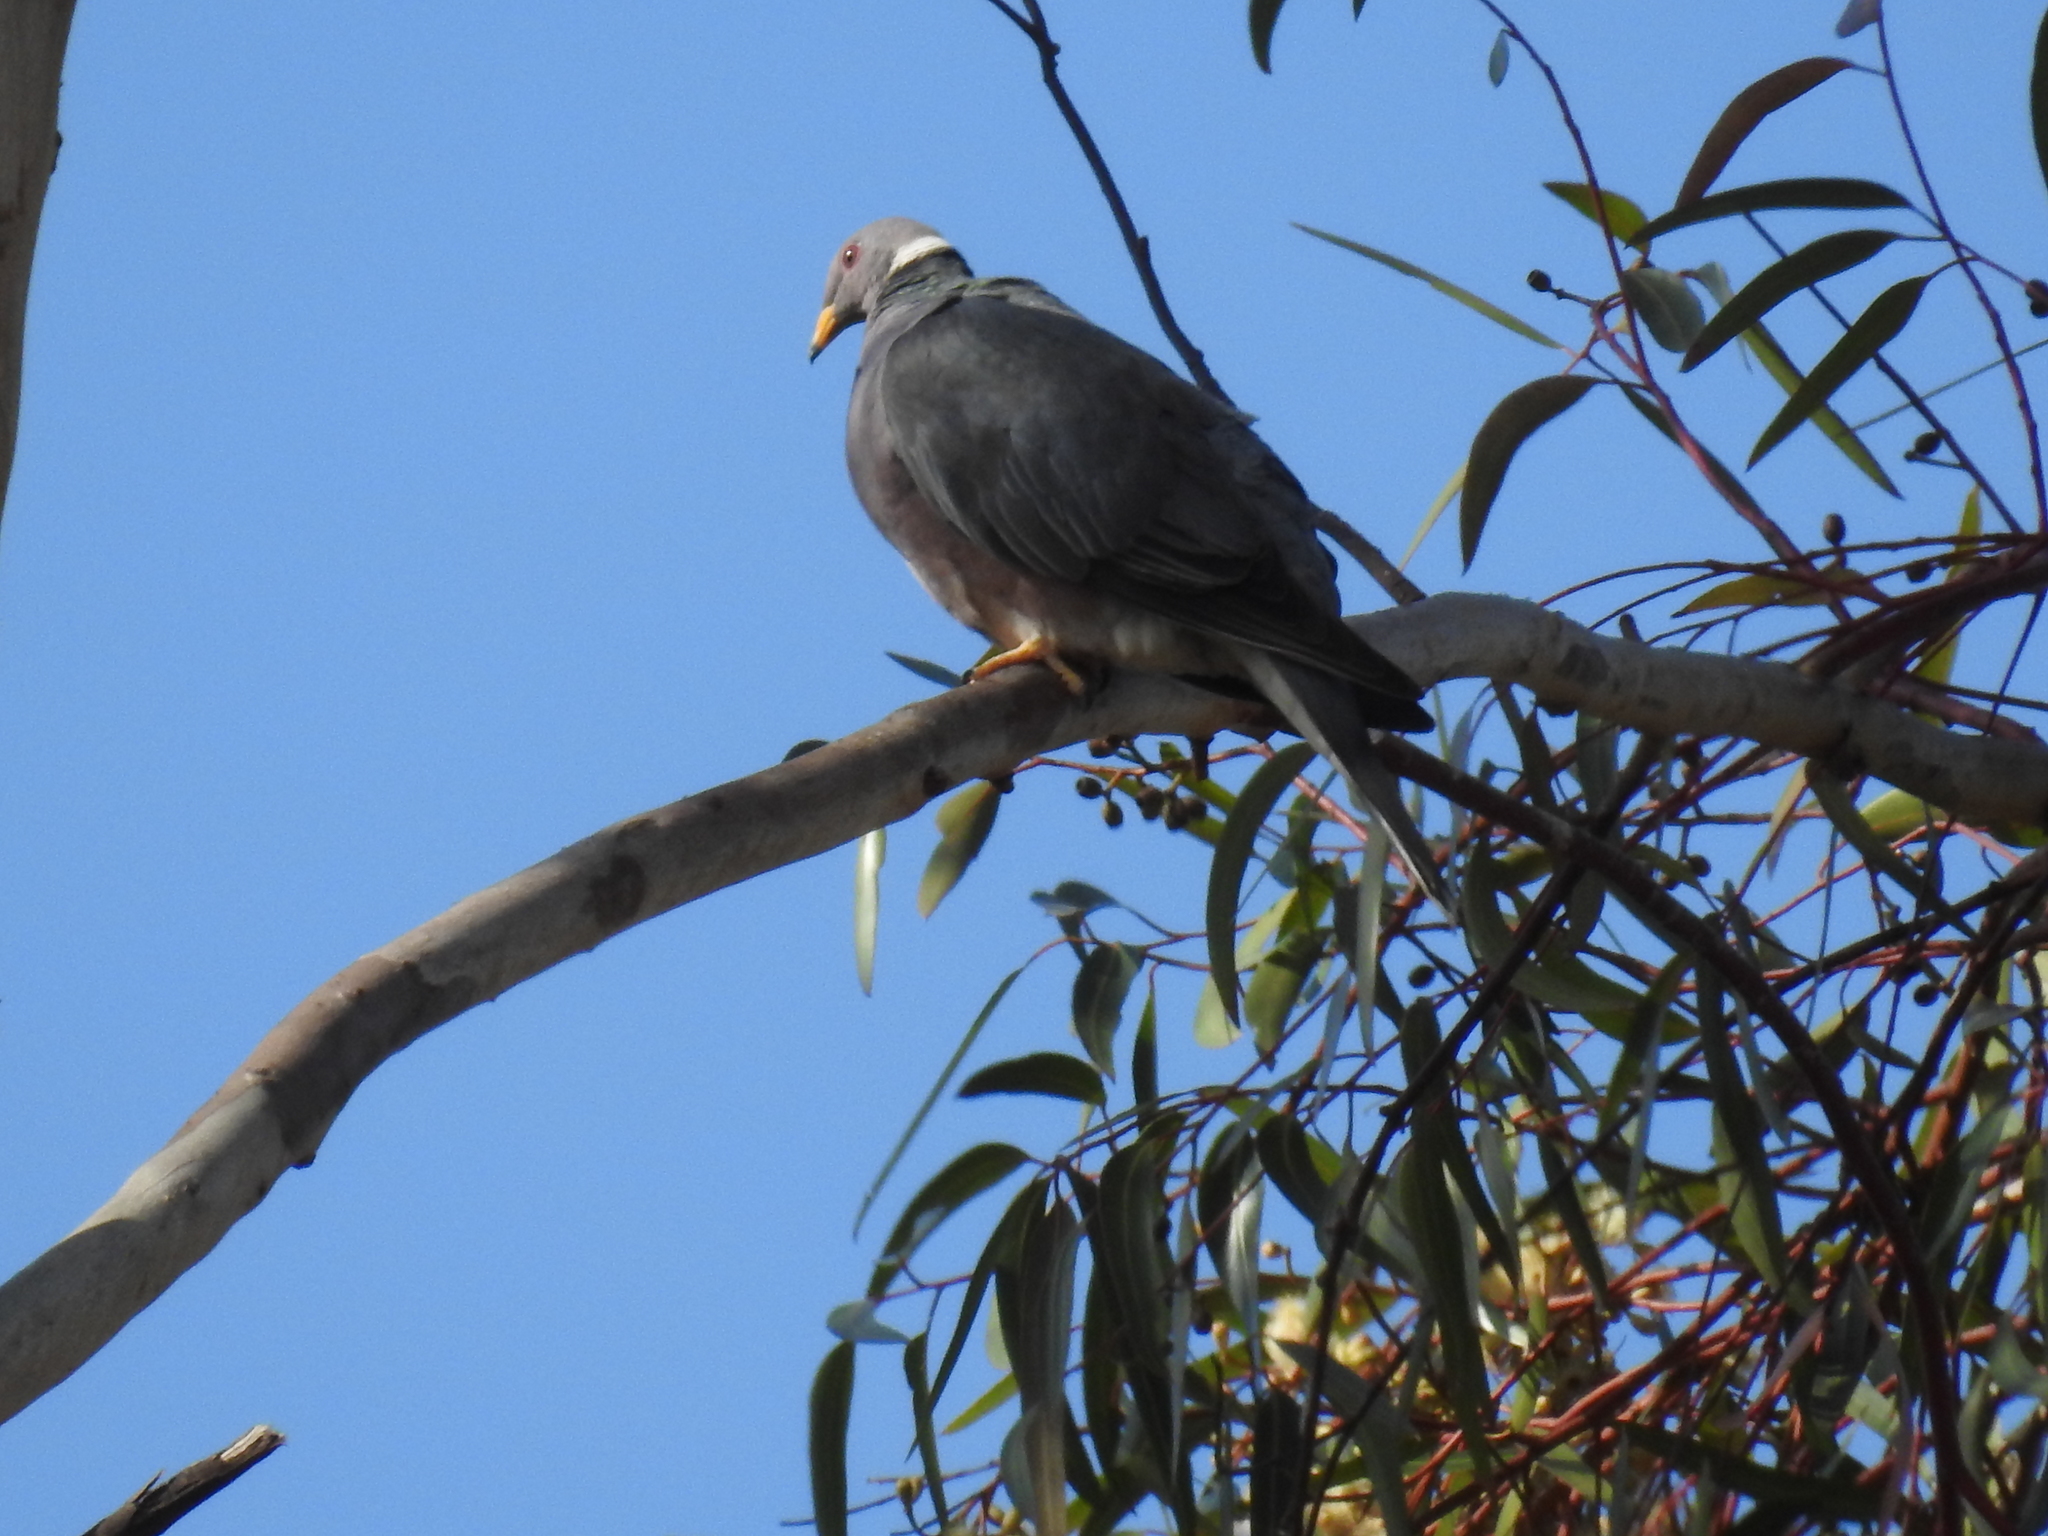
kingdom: Animalia
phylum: Chordata
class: Aves
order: Columbiformes
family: Columbidae
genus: Patagioenas
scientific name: Patagioenas fasciata
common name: Band-tailed pigeon
